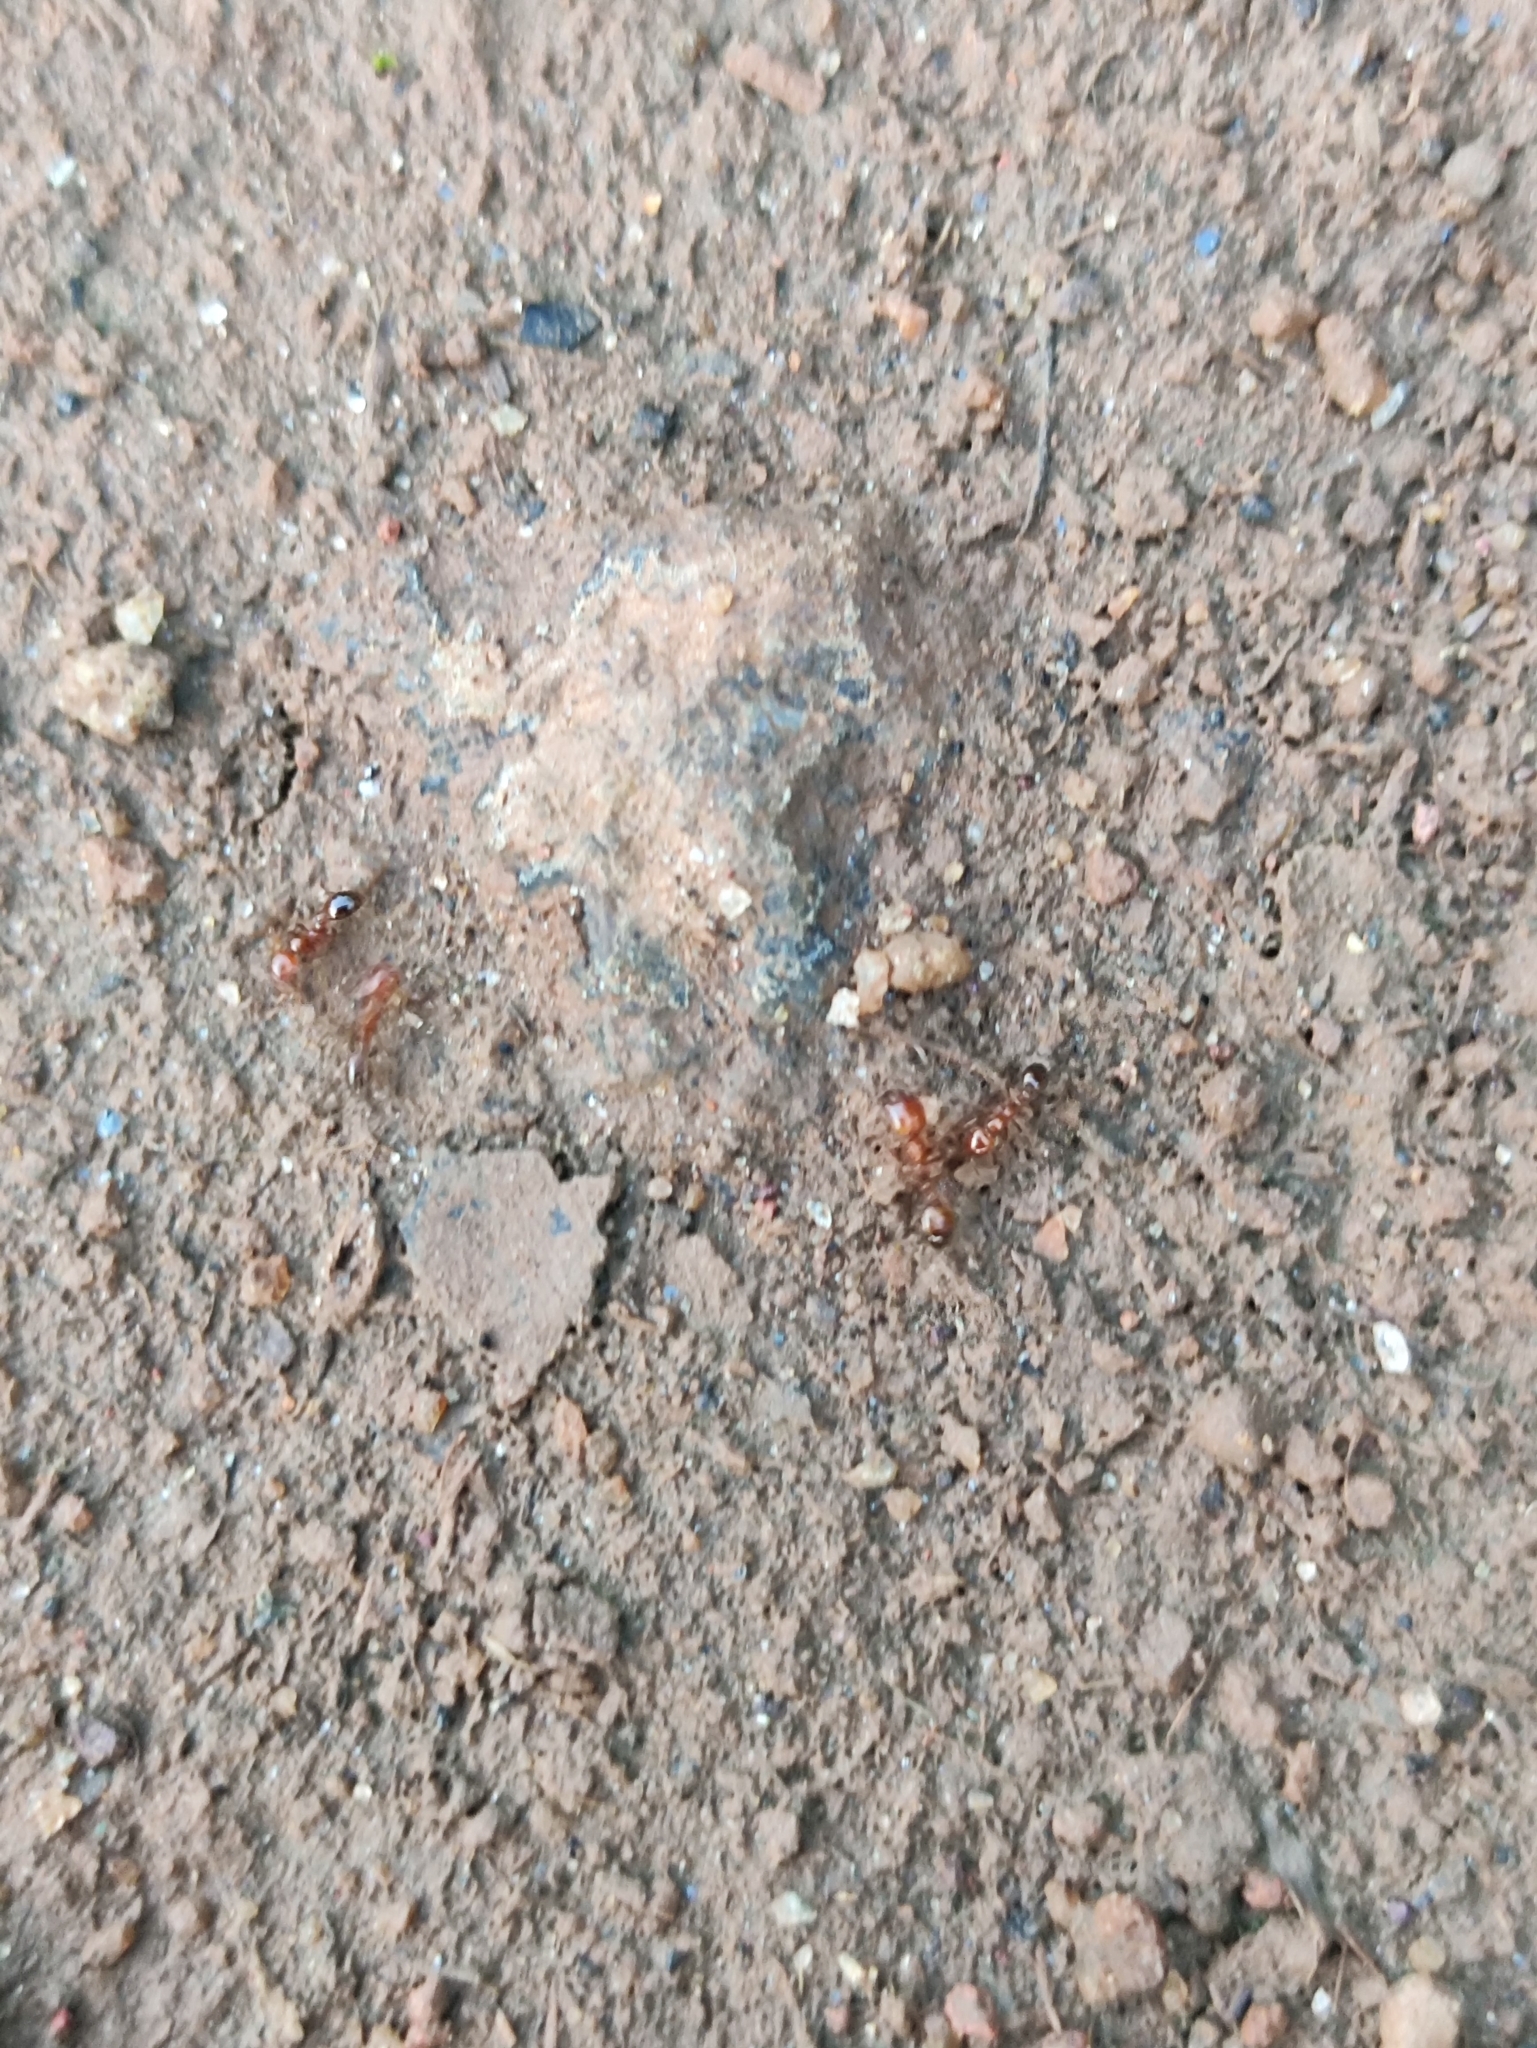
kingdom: Animalia
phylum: Arthropoda
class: Insecta
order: Hymenoptera
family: Formicidae
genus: Solenopsis
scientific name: Solenopsis geminata
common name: Tropical fire ant
